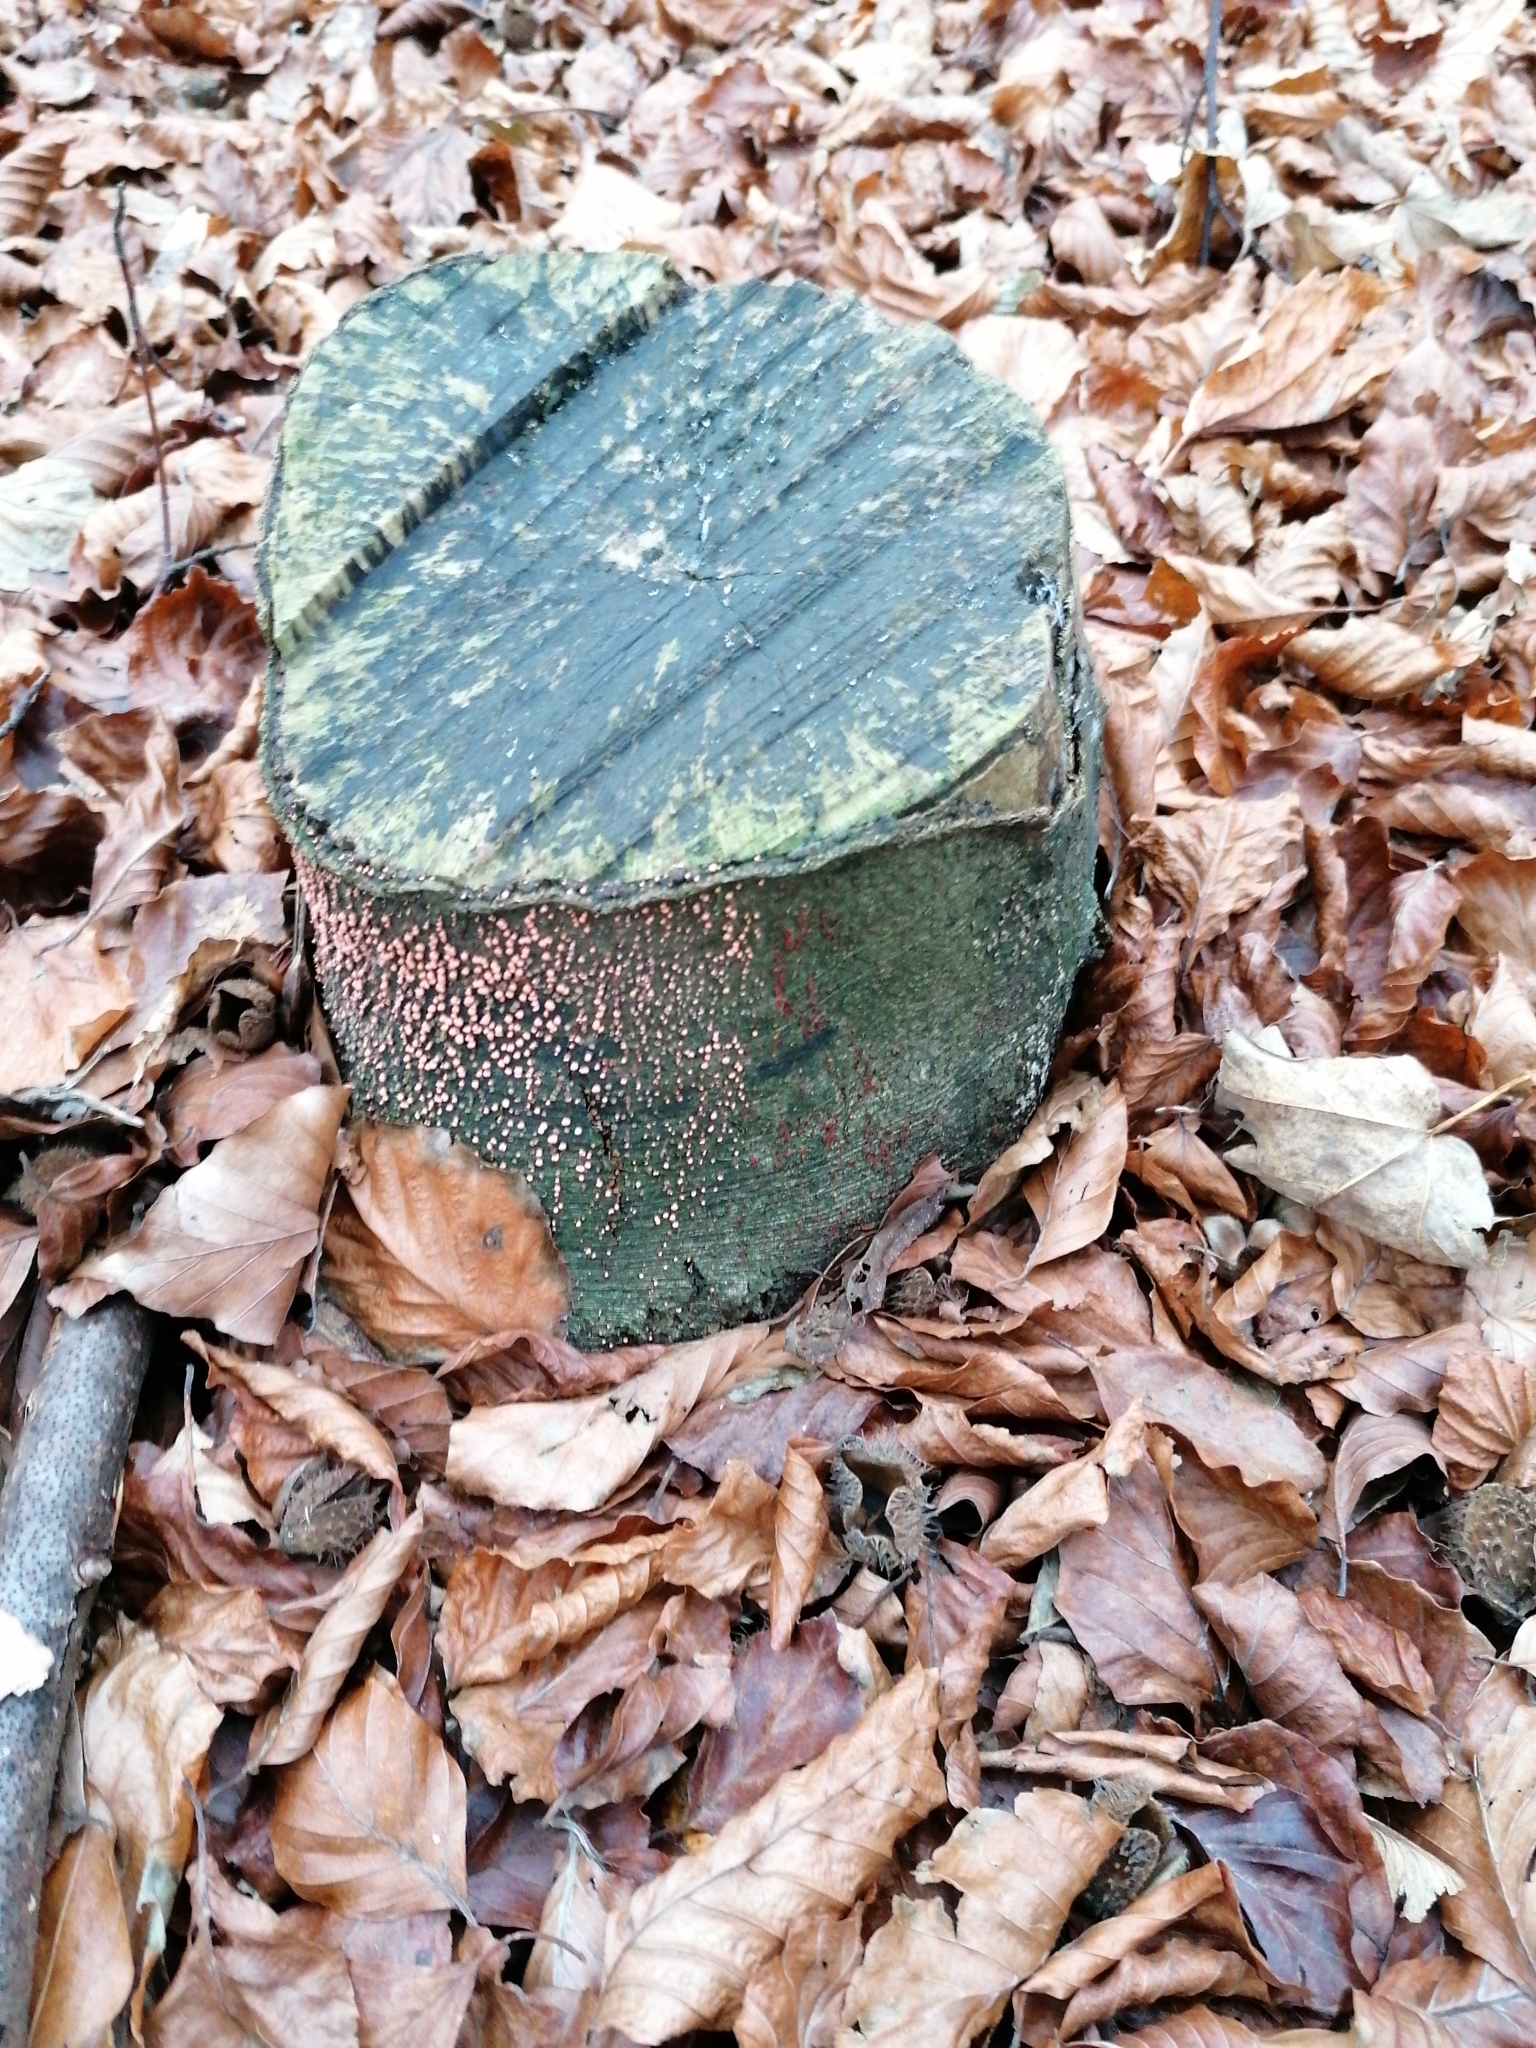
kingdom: Fungi
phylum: Ascomycota
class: Sordariomycetes
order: Hypocreales
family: Nectriaceae
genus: Nectria
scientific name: Nectria cinnabarina
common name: Coral spot
